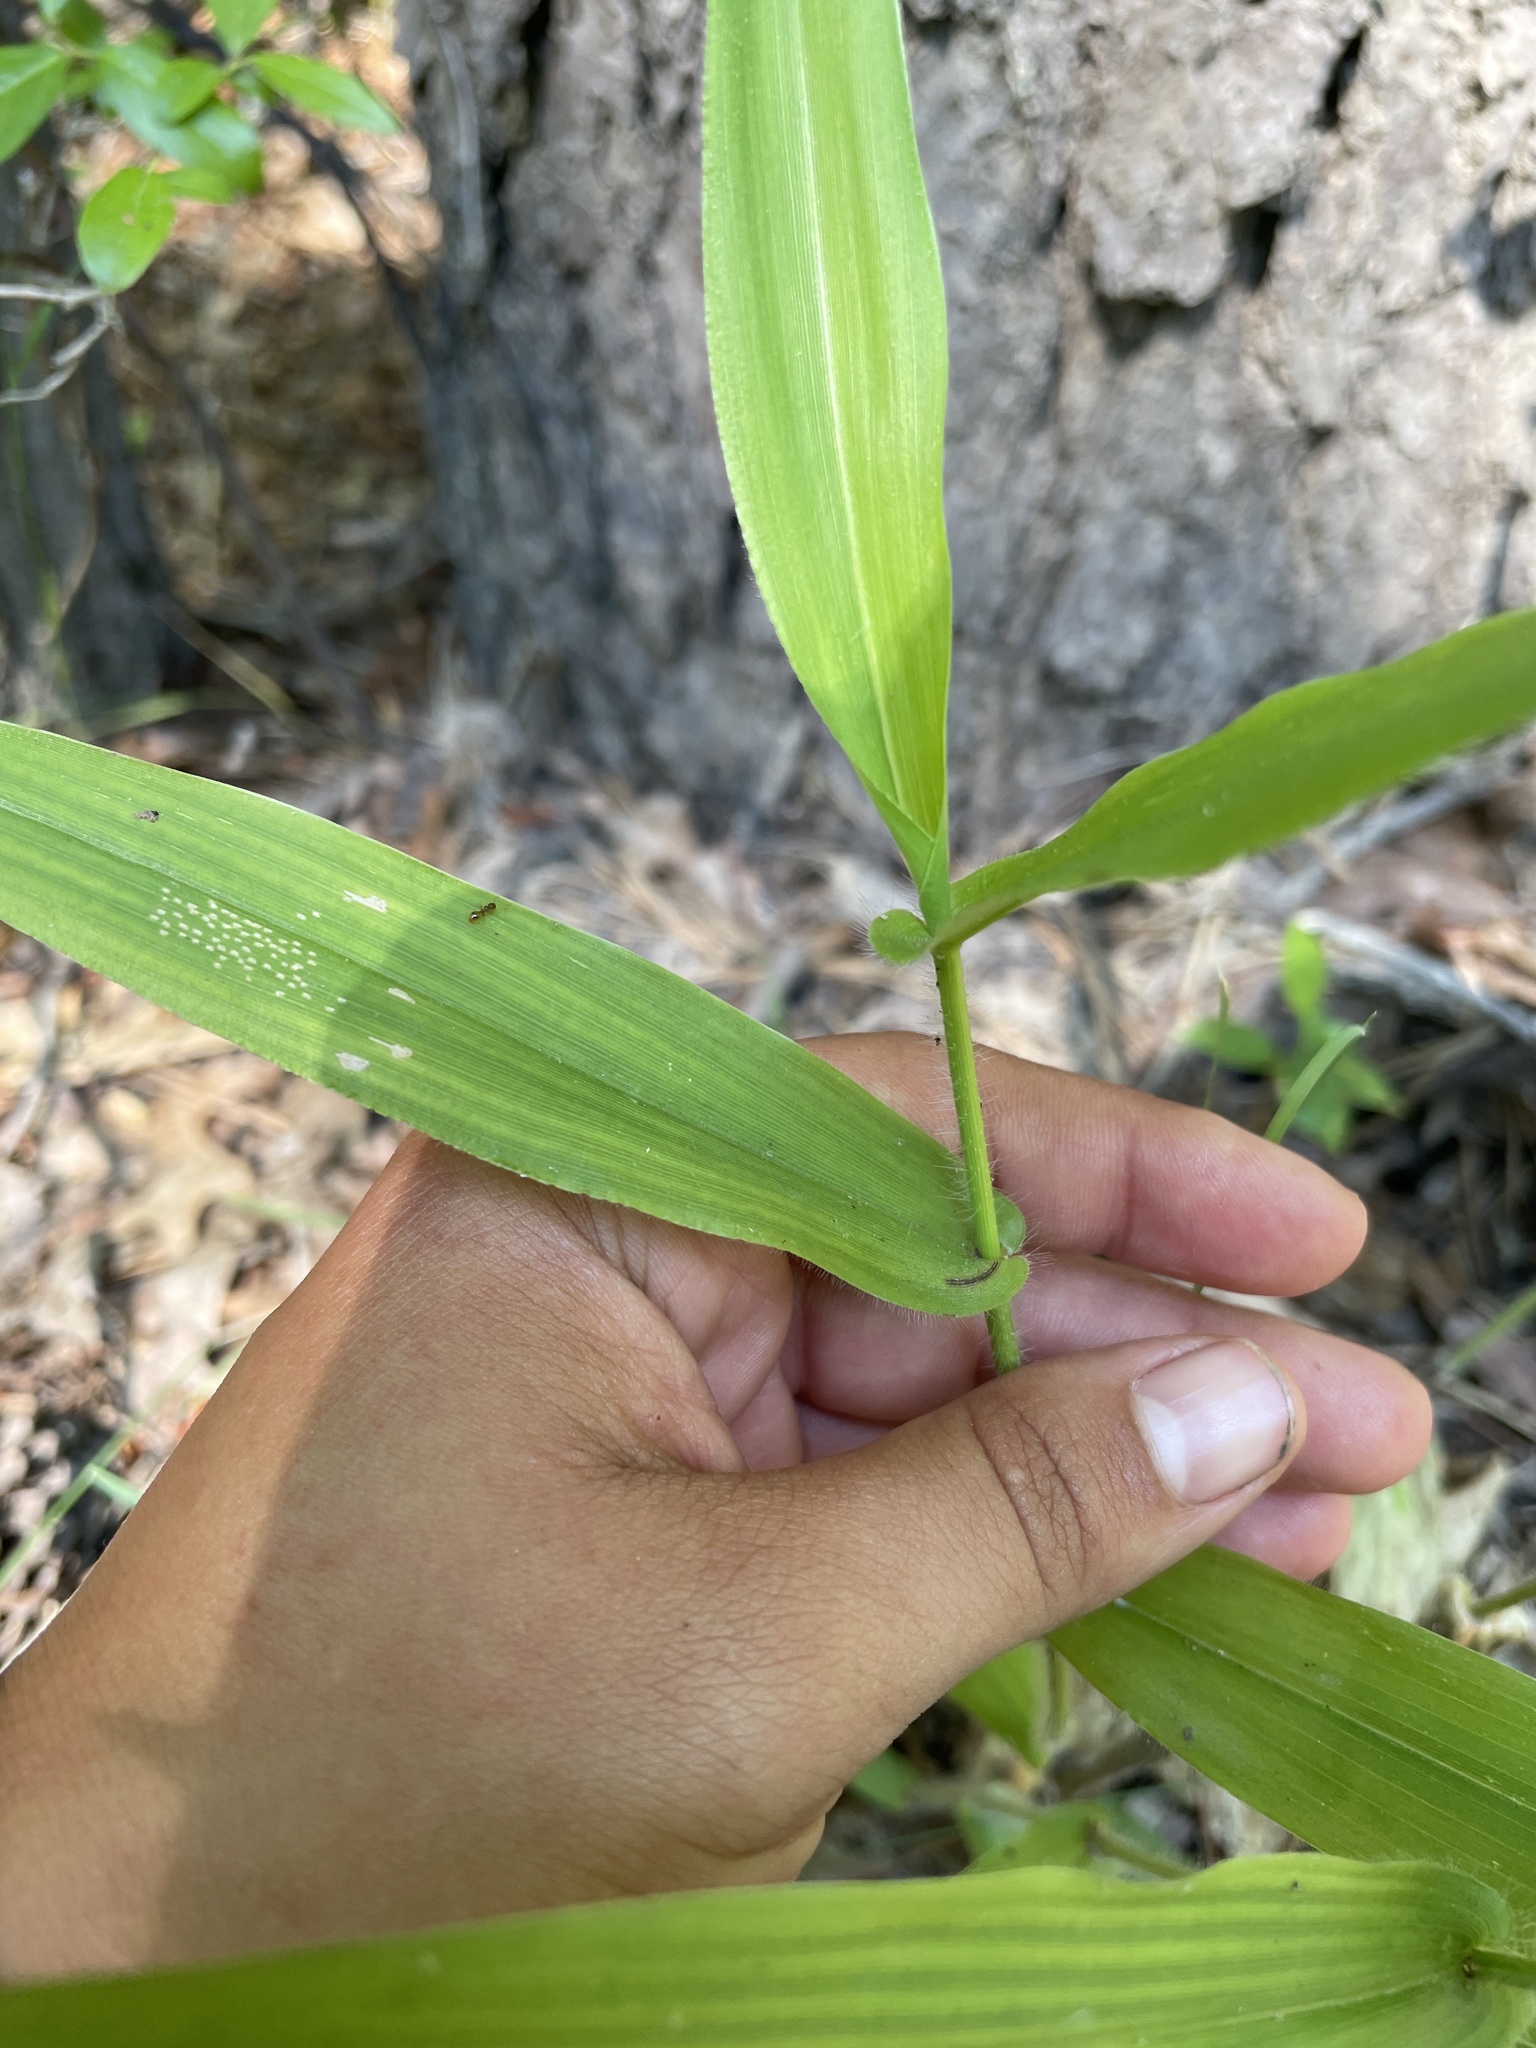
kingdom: Plantae
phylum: Tracheophyta
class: Liliopsida
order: Poales
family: Poaceae
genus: Dichanthelium
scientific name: Dichanthelium clandestinum
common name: Deer-tongue grass
